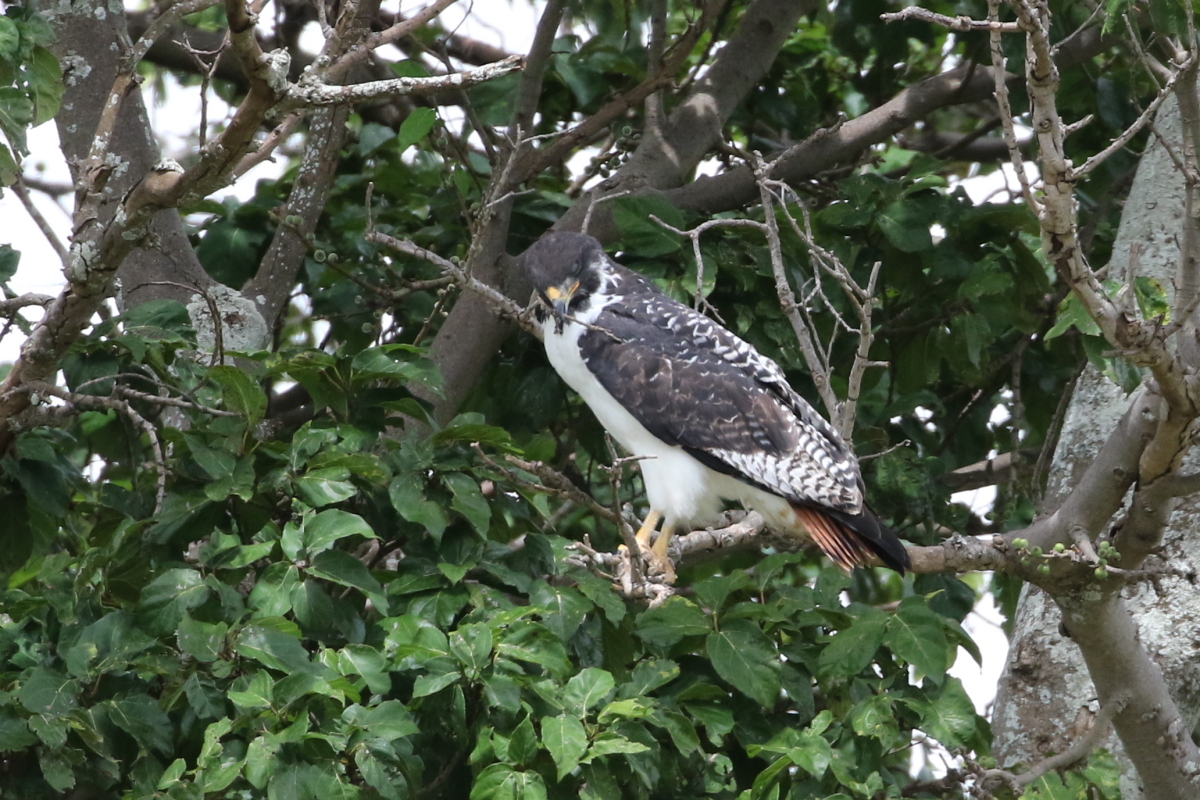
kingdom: Animalia
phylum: Chordata
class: Aves
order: Accipitriformes
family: Accipitridae
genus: Buteo
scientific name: Buteo augur
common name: Augur buzzard
